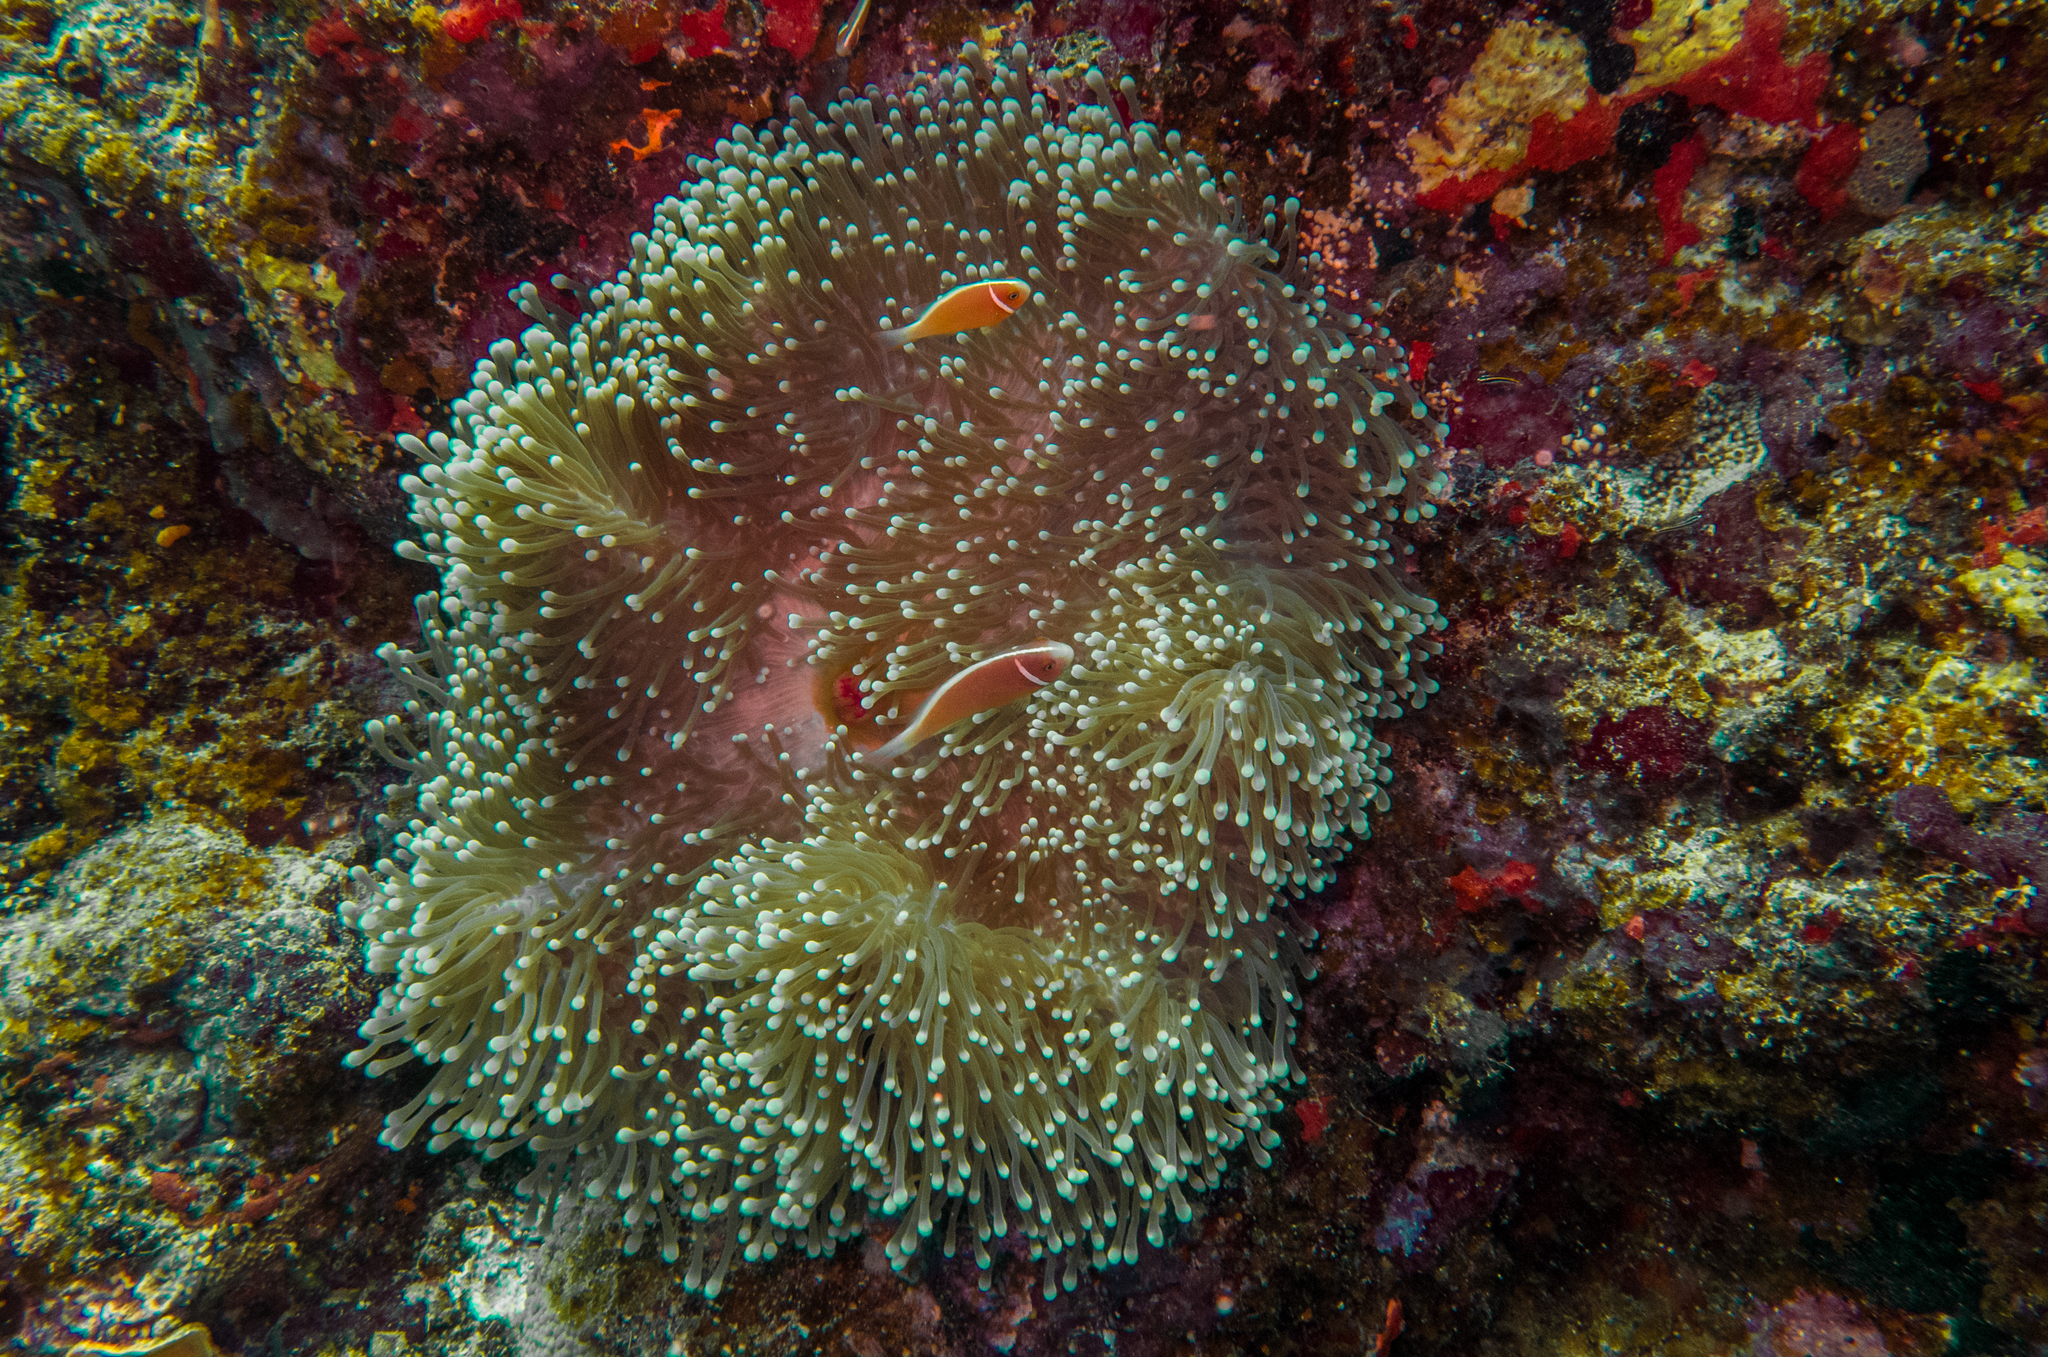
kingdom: Animalia
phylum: Cnidaria
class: Anthozoa
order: Actiniaria
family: Stichodactylidae
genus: Radianthus
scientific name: Radianthus magnifica
